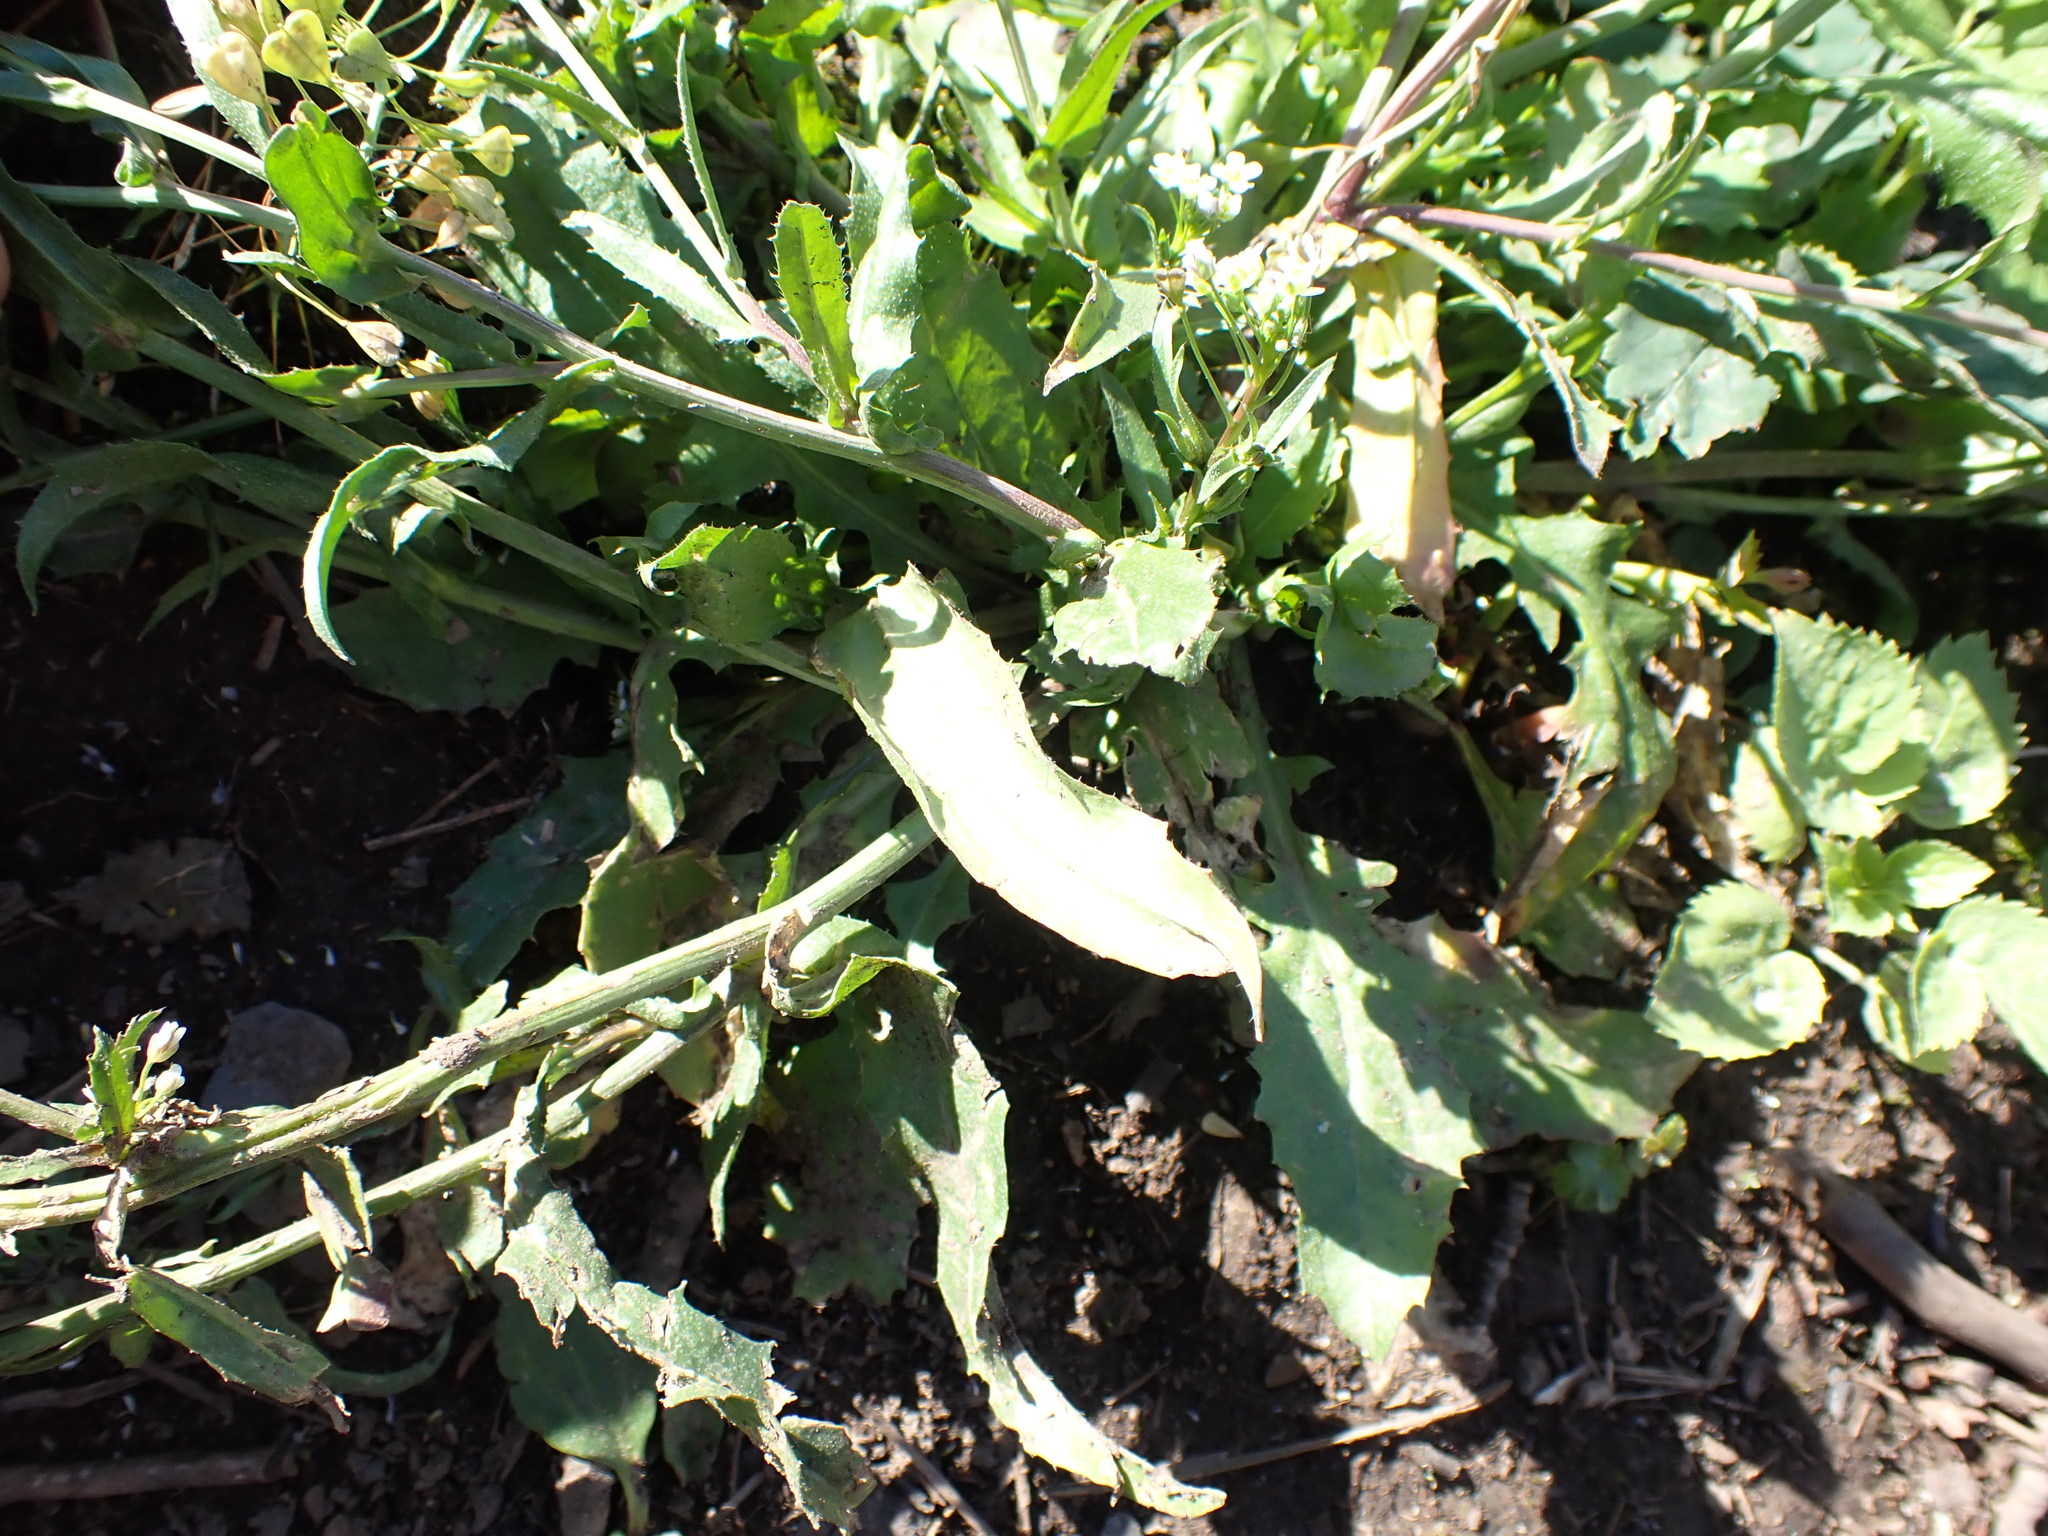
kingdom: Plantae
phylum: Tracheophyta
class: Magnoliopsida
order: Brassicales
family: Brassicaceae
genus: Capsella
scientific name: Capsella bursa-pastoris
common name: Shepherd's purse
